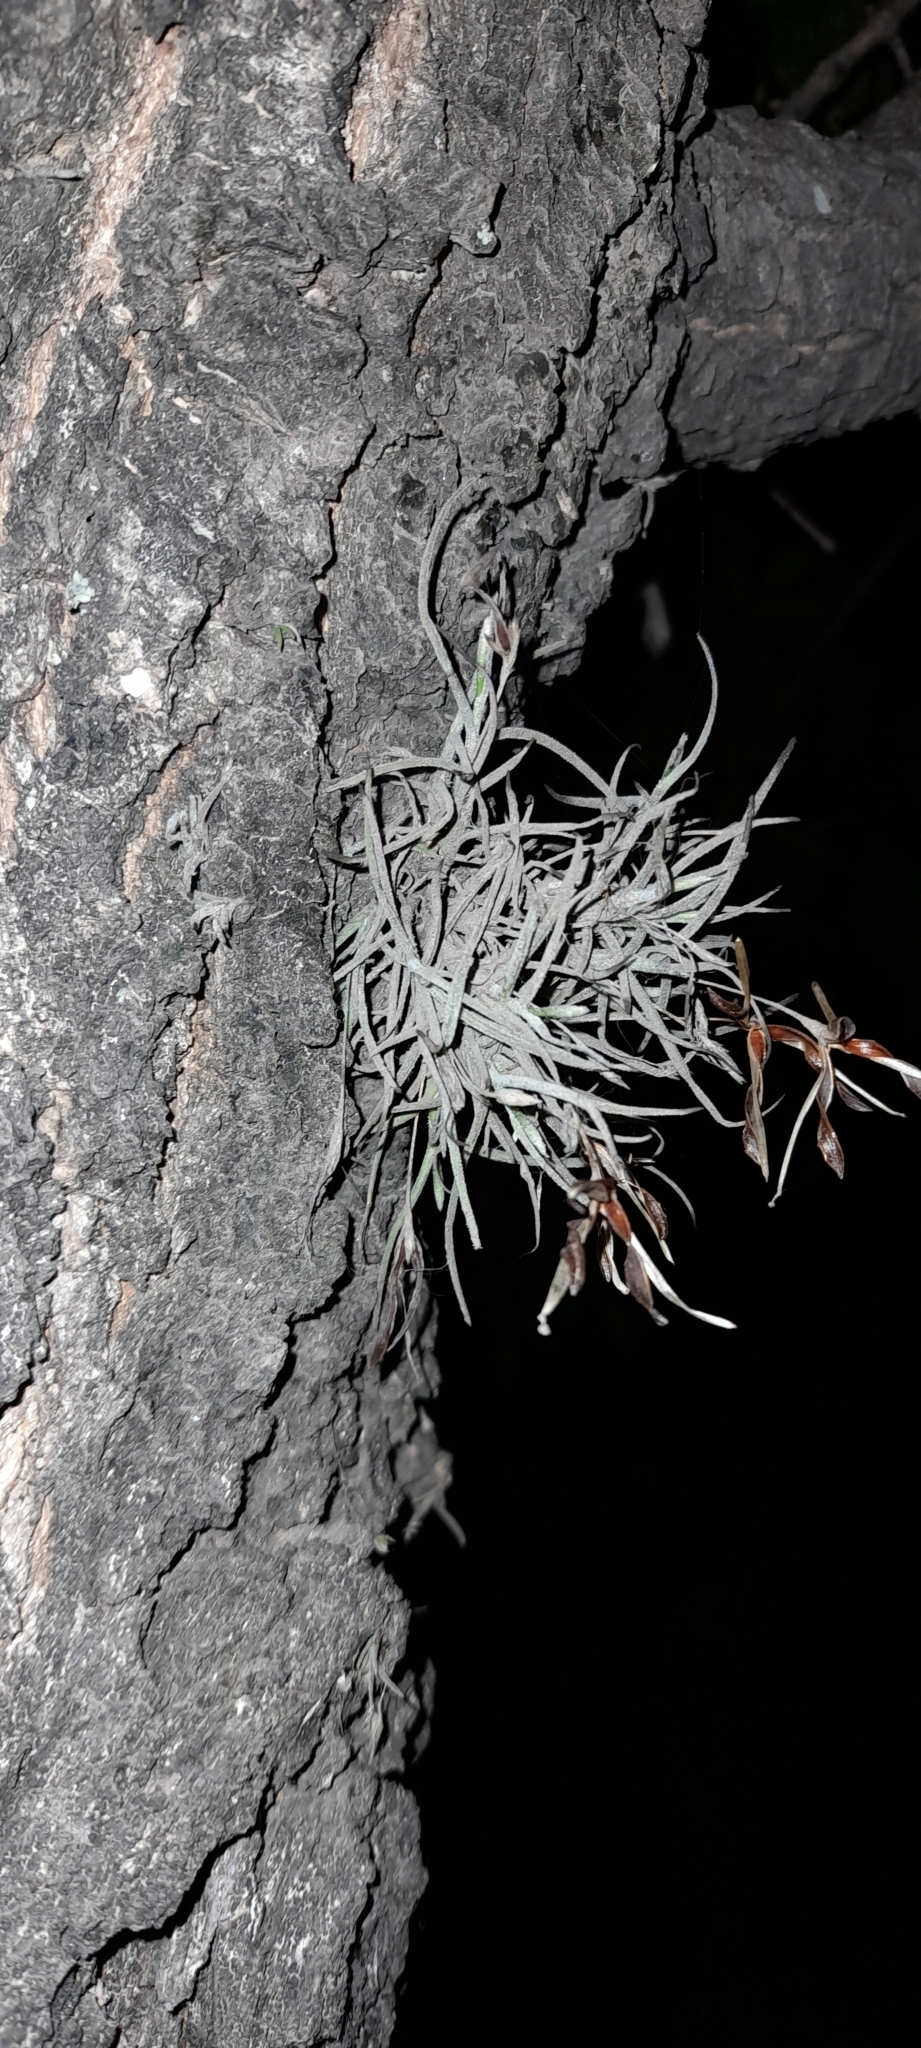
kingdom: Plantae
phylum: Tracheophyta
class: Liliopsida
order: Poales
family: Bromeliaceae
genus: Tillandsia
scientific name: Tillandsia recurvata
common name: Small ballmoss
